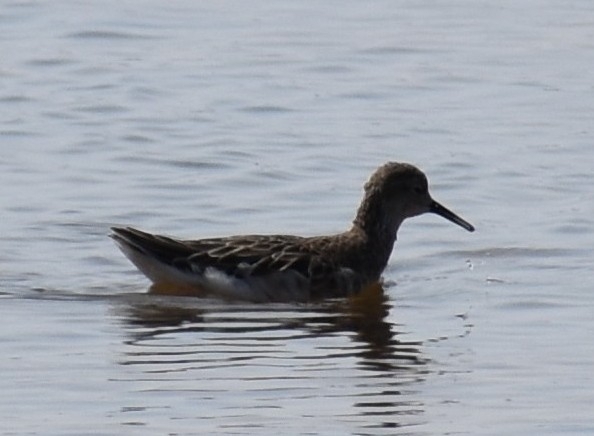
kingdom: Animalia
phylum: Chordata
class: Aves
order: Charadriiformes
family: Scolopacidae
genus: Calidris
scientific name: Calidris pugnax
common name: Ruff
